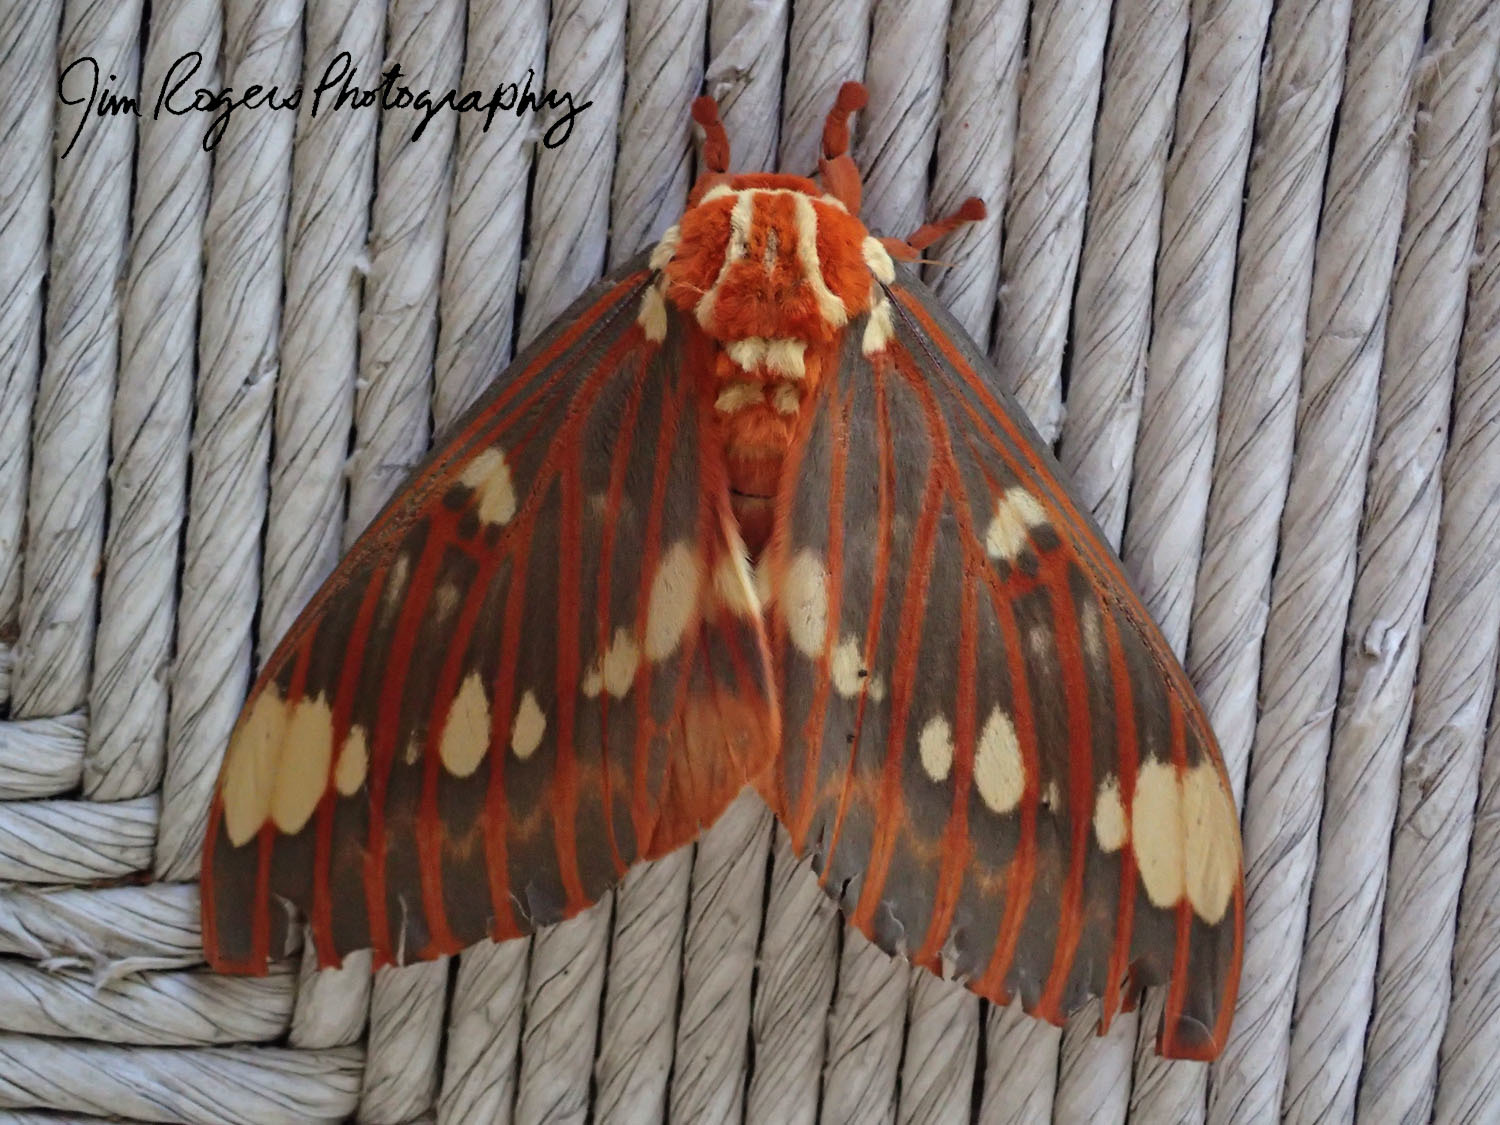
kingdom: Animalia
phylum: Arthropoda
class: Insecta
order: Lepidoptera
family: Saturniidae
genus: Citheronia
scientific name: Citheronia regalis
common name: Hickory horned devil
